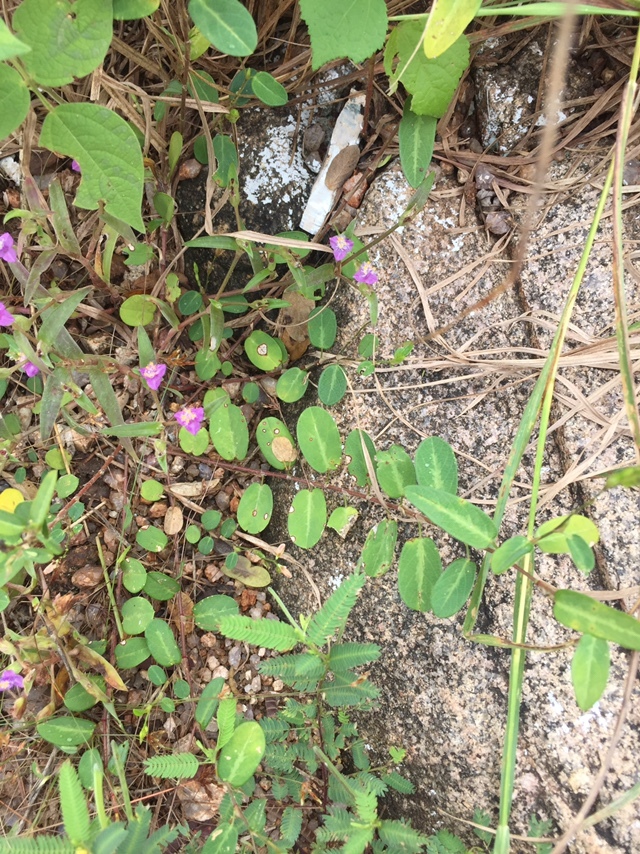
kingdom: Plantae
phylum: Tracheophyta
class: Magnoliopsida
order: Fabales
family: Fabaceae
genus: Alysicarpus
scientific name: Alysicarpus monilifer
